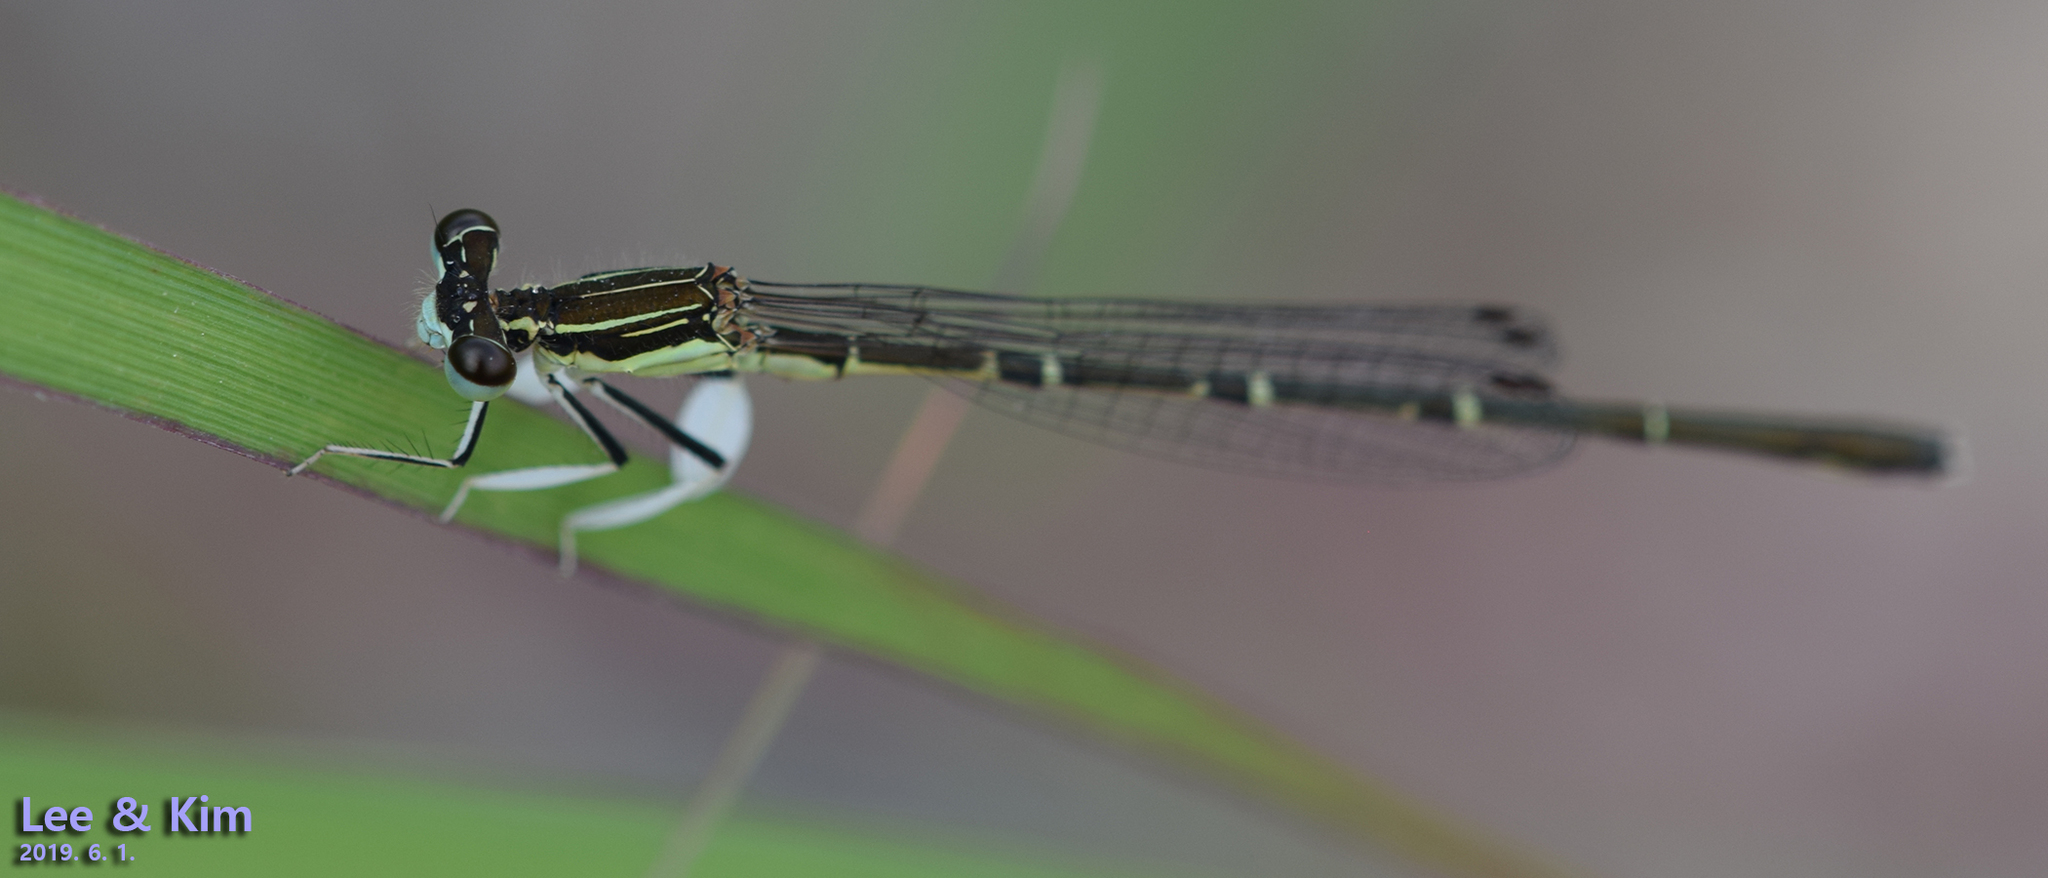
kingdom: Animalia
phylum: Arthropoda
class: Insecta
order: Odonata
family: Platycnemididae
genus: Platycnemis
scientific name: Platycnemis phyllopoda
